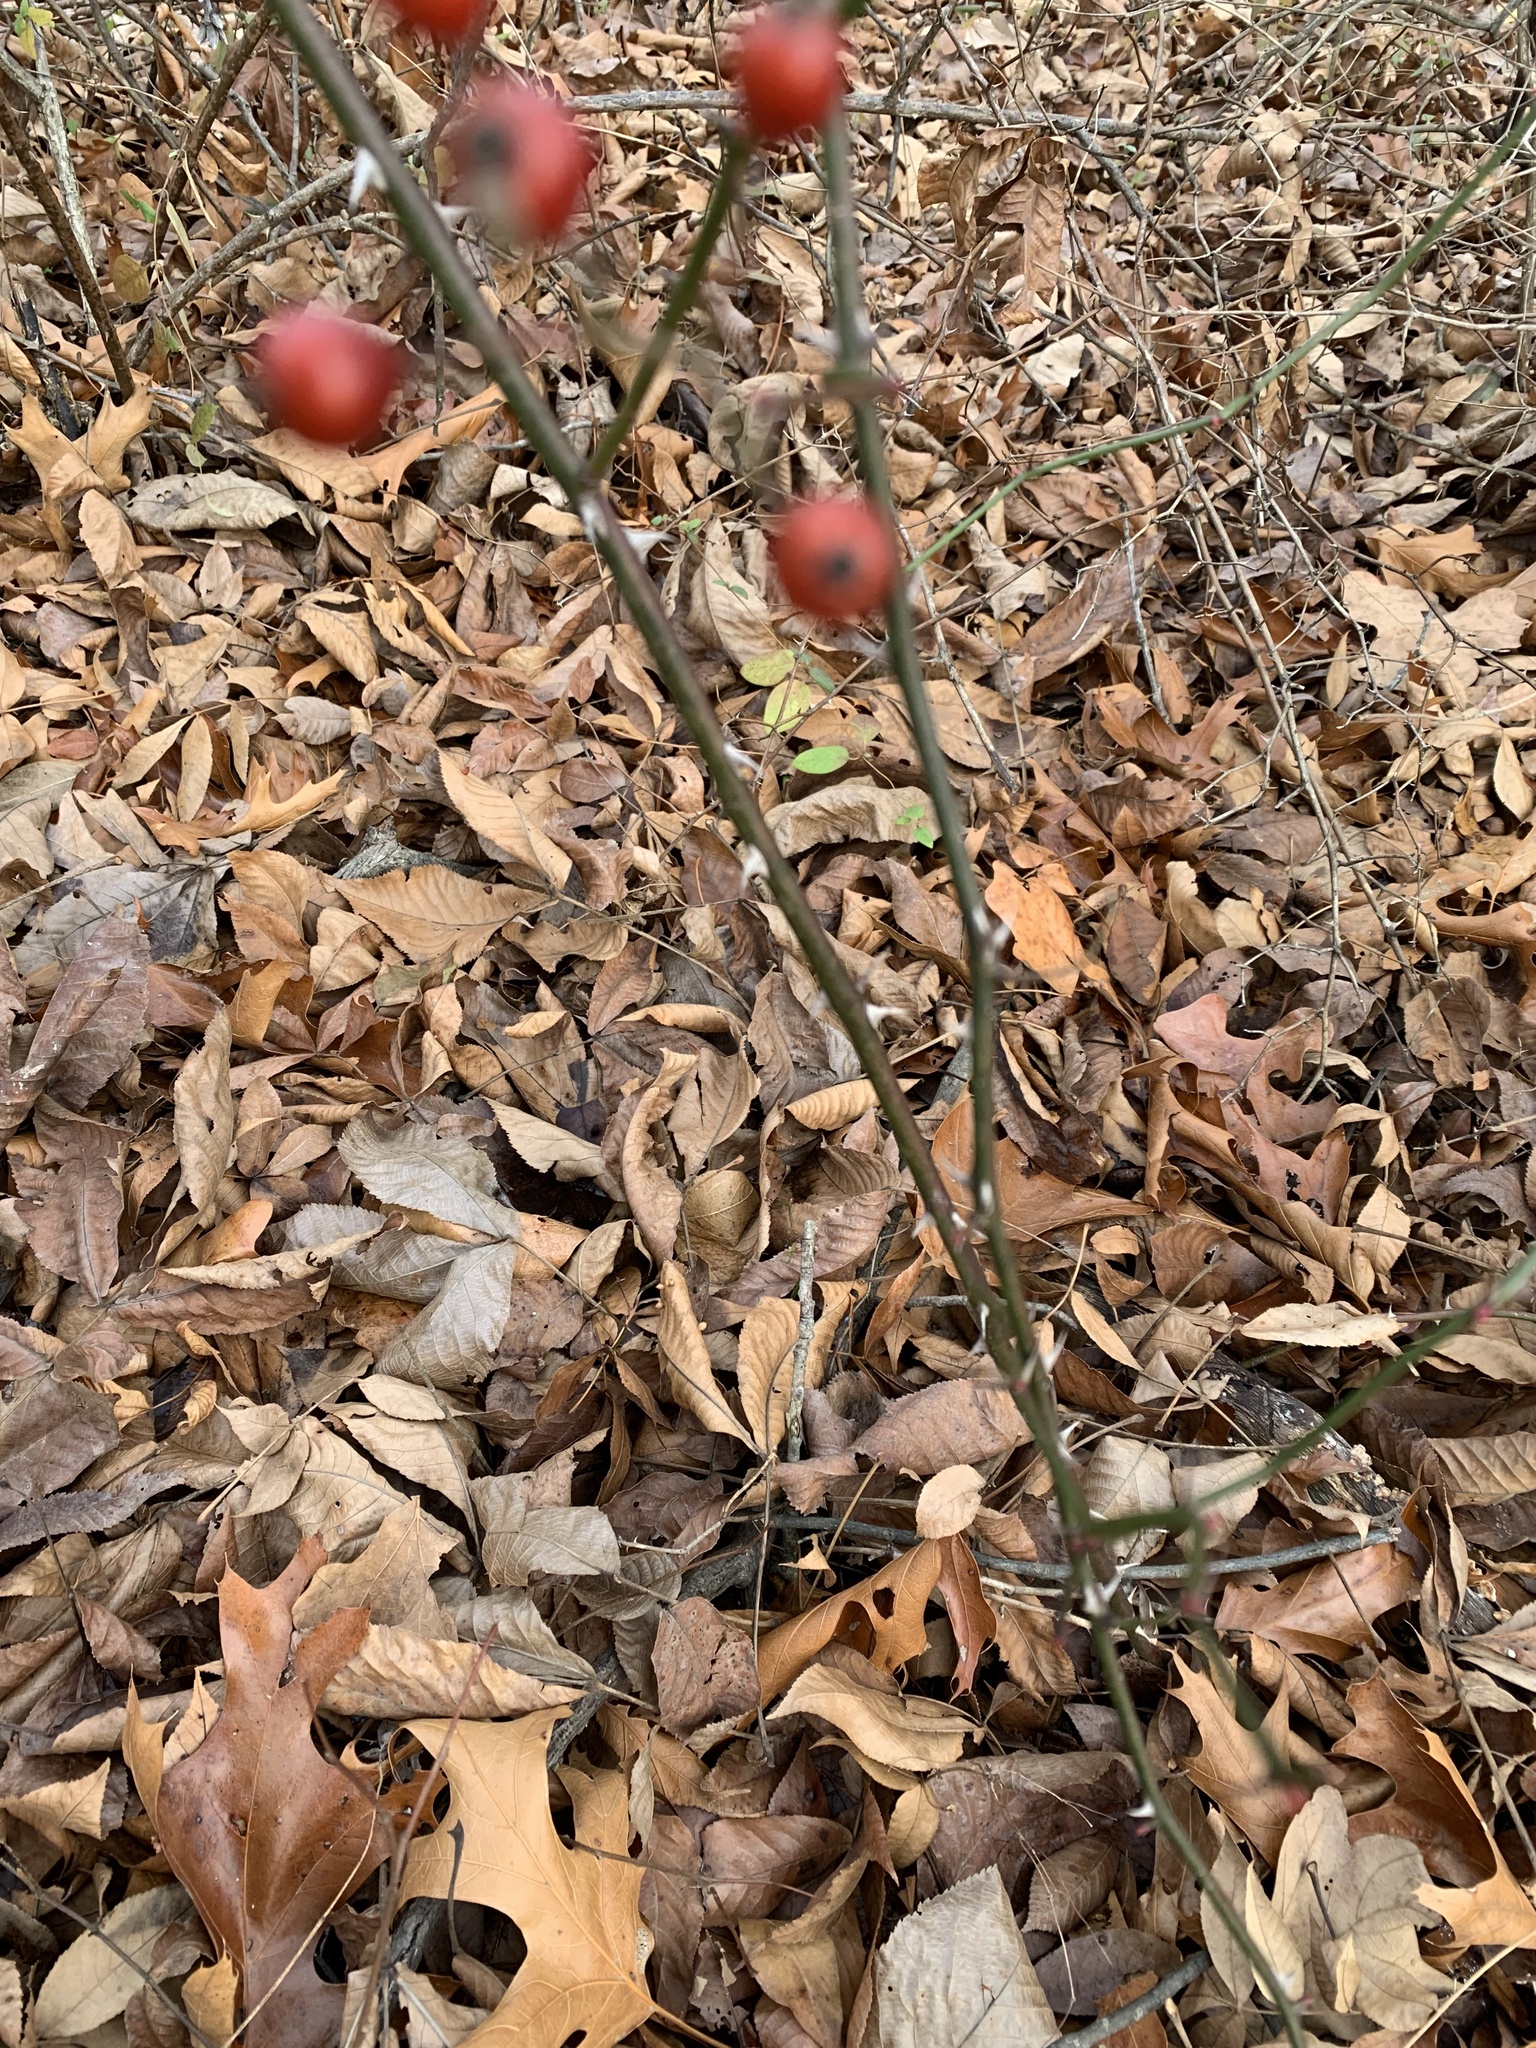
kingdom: Plantae
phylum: Tracheophyta
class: Magnoliopsida
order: Rosales
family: Rosaceae
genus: Rosa
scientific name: Rosa multiflora
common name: Multiflora rose
